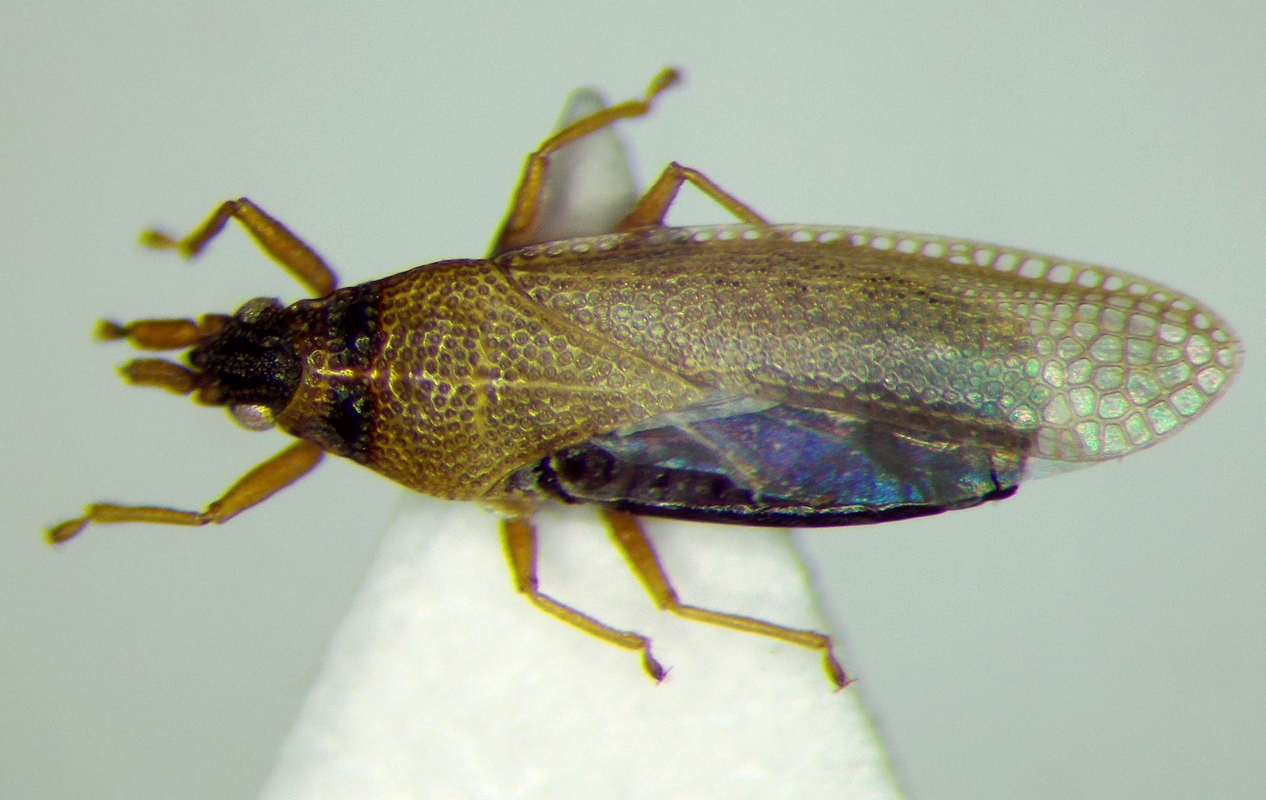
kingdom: Animalia
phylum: Arthropoda
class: Insecta
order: Hemiptera
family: Tingidae
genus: Agramma
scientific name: Agramma atricapillum
